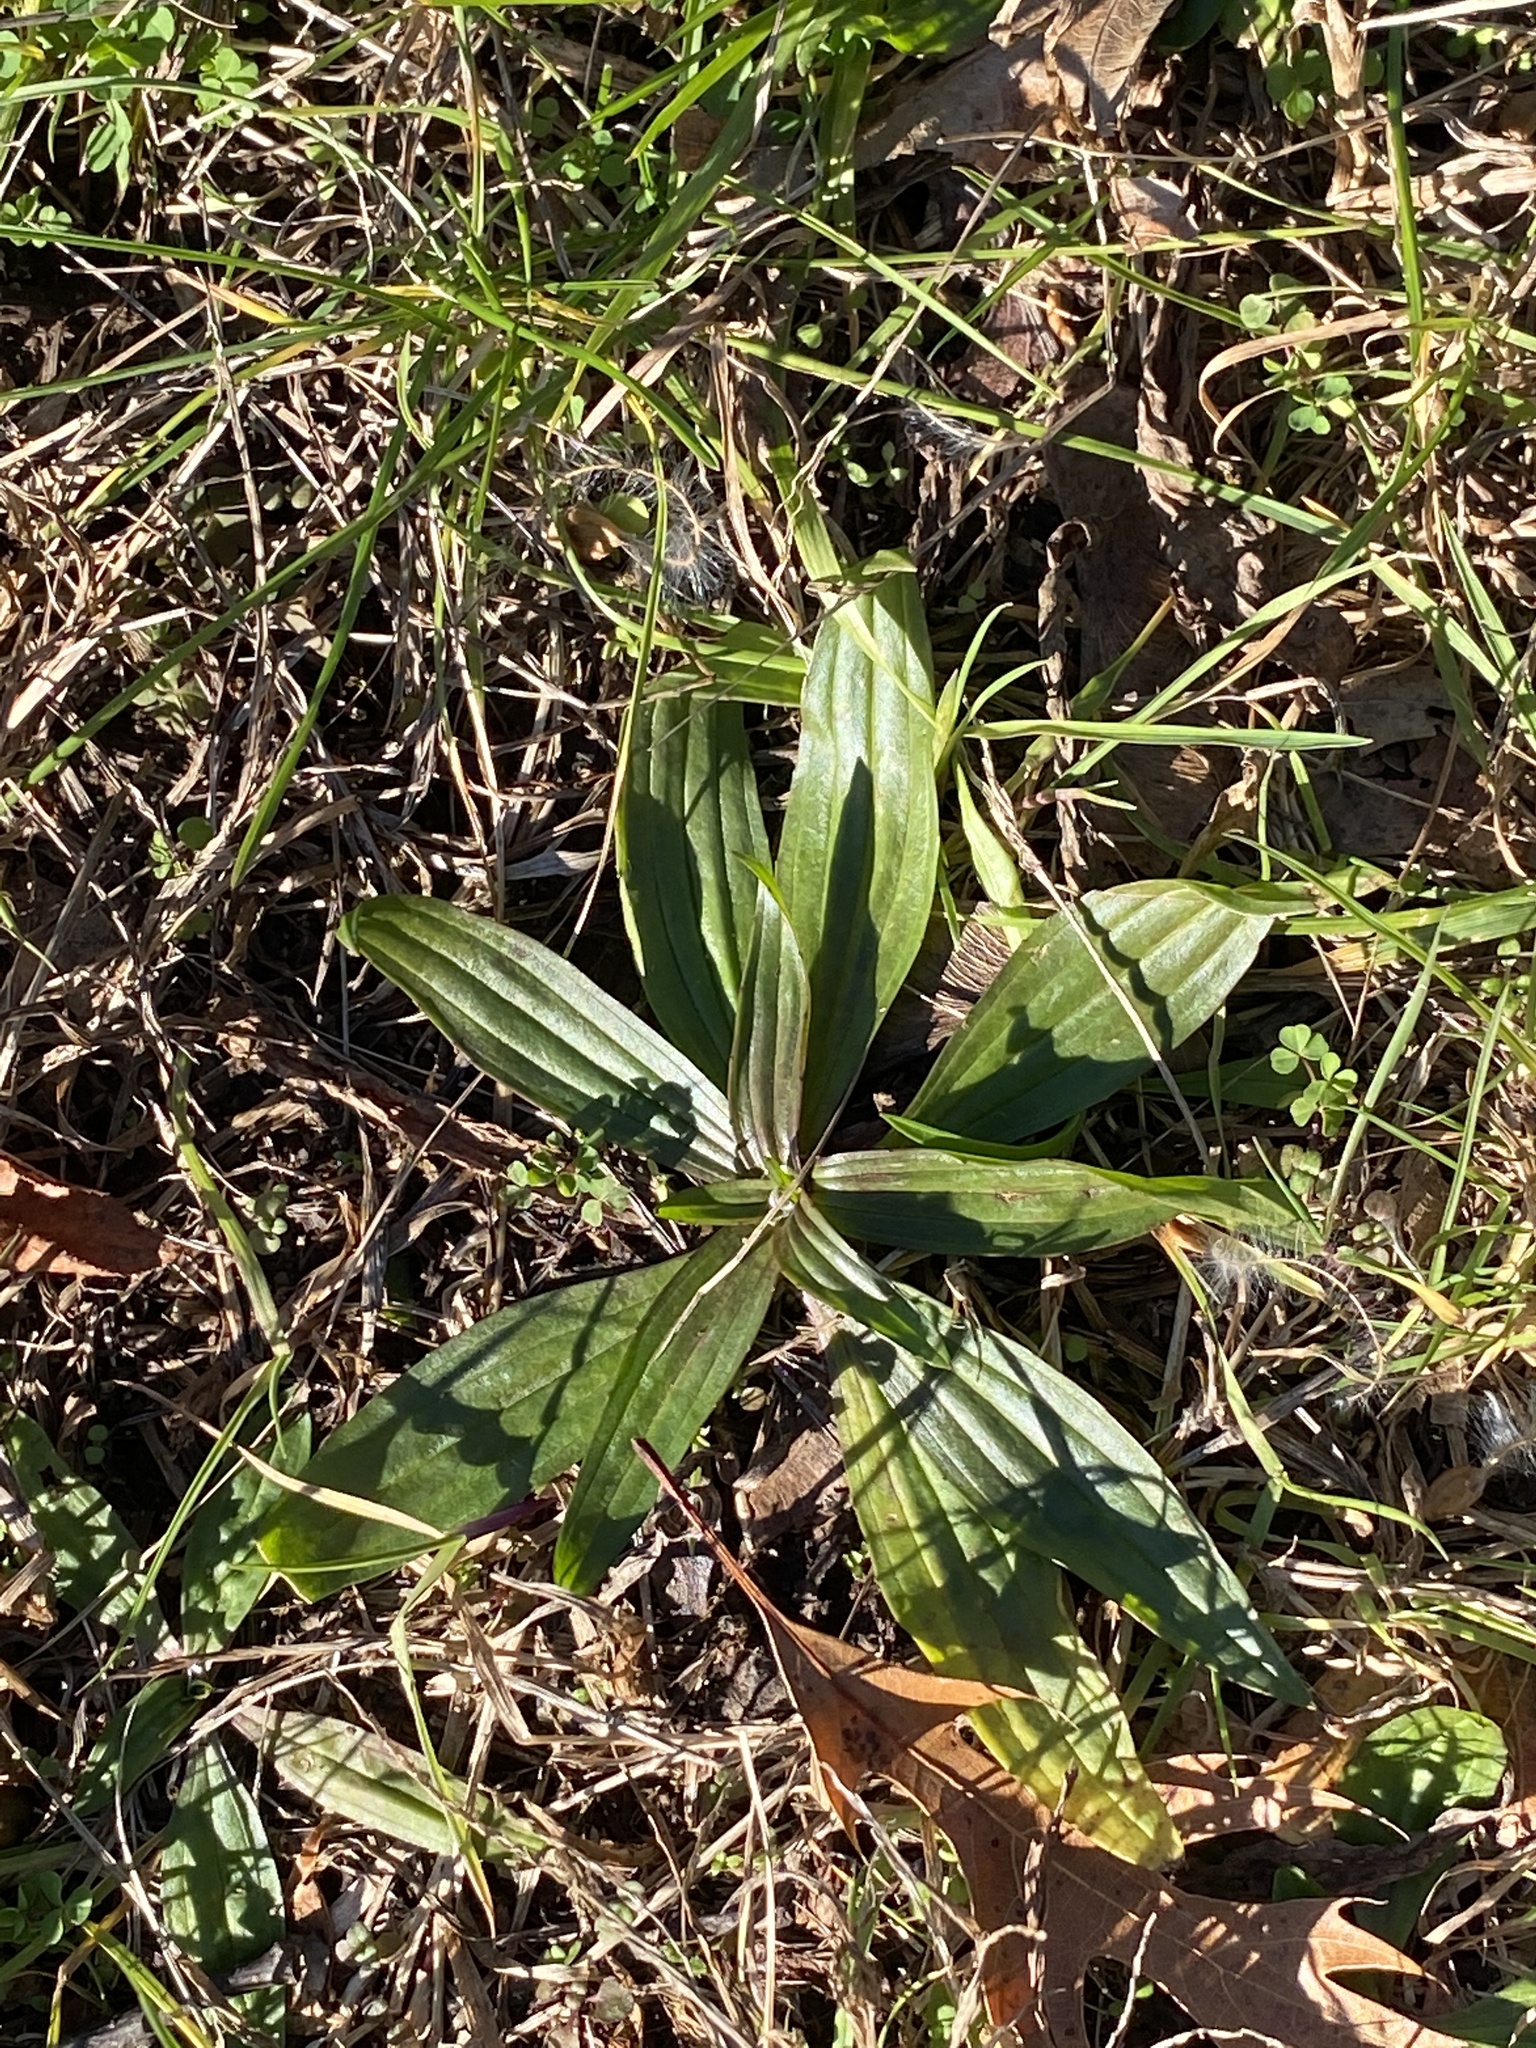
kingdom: Plantae
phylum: Tracheophyta
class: Magnoliopsida
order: Lamiales
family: Plantaginaceae
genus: Plantago
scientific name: Plantago lanceolata
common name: Ribwort plantain
